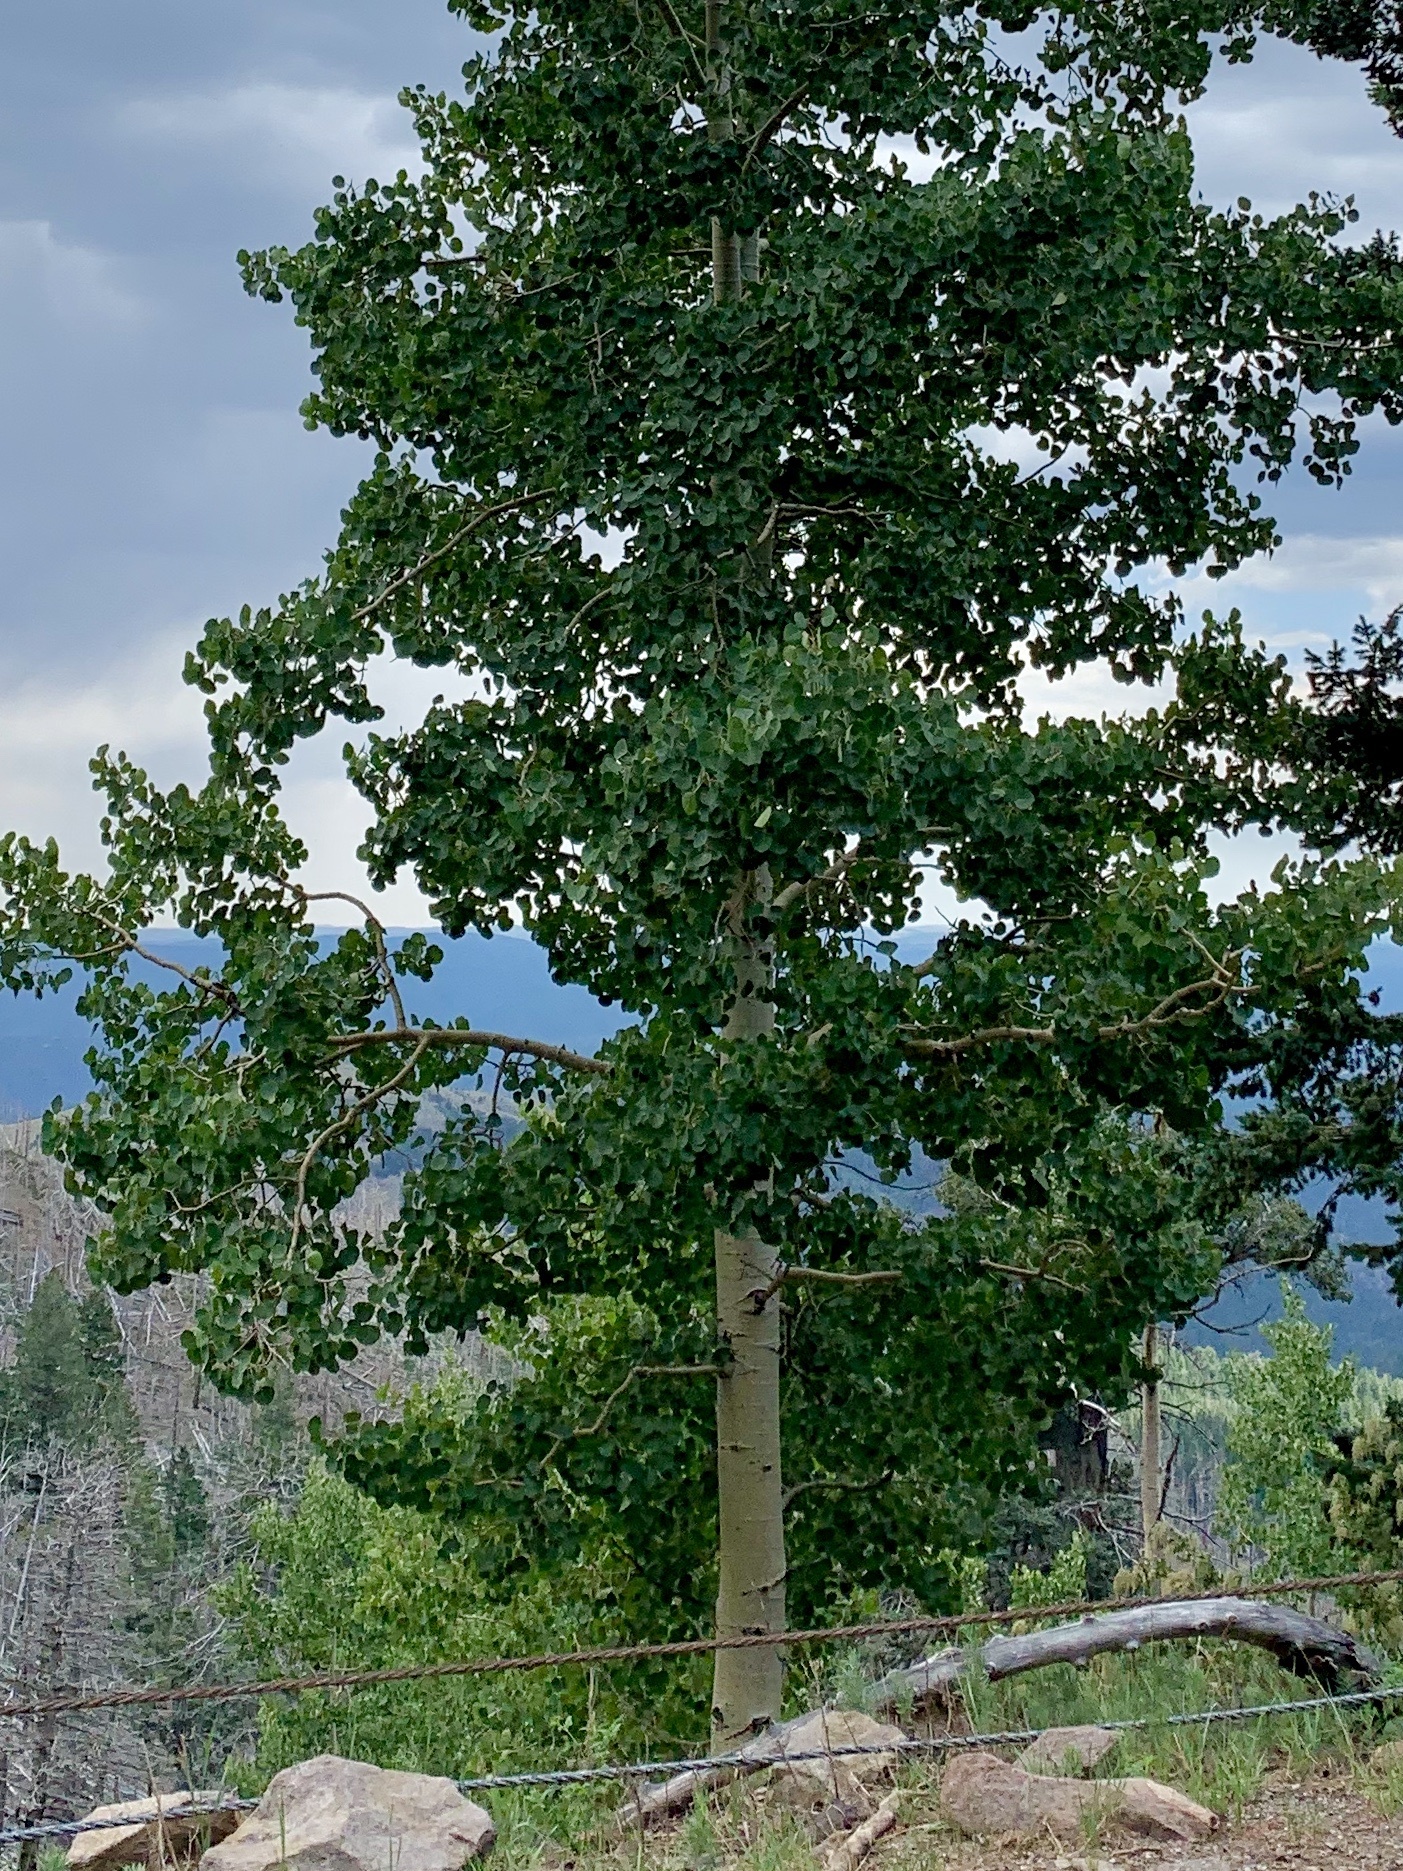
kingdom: Plantae
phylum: Tracheophyta
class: Magnoliopsida
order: Malpighiales
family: Salicaceae
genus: Populus
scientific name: Populus tremuloides
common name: Quaking aspen
